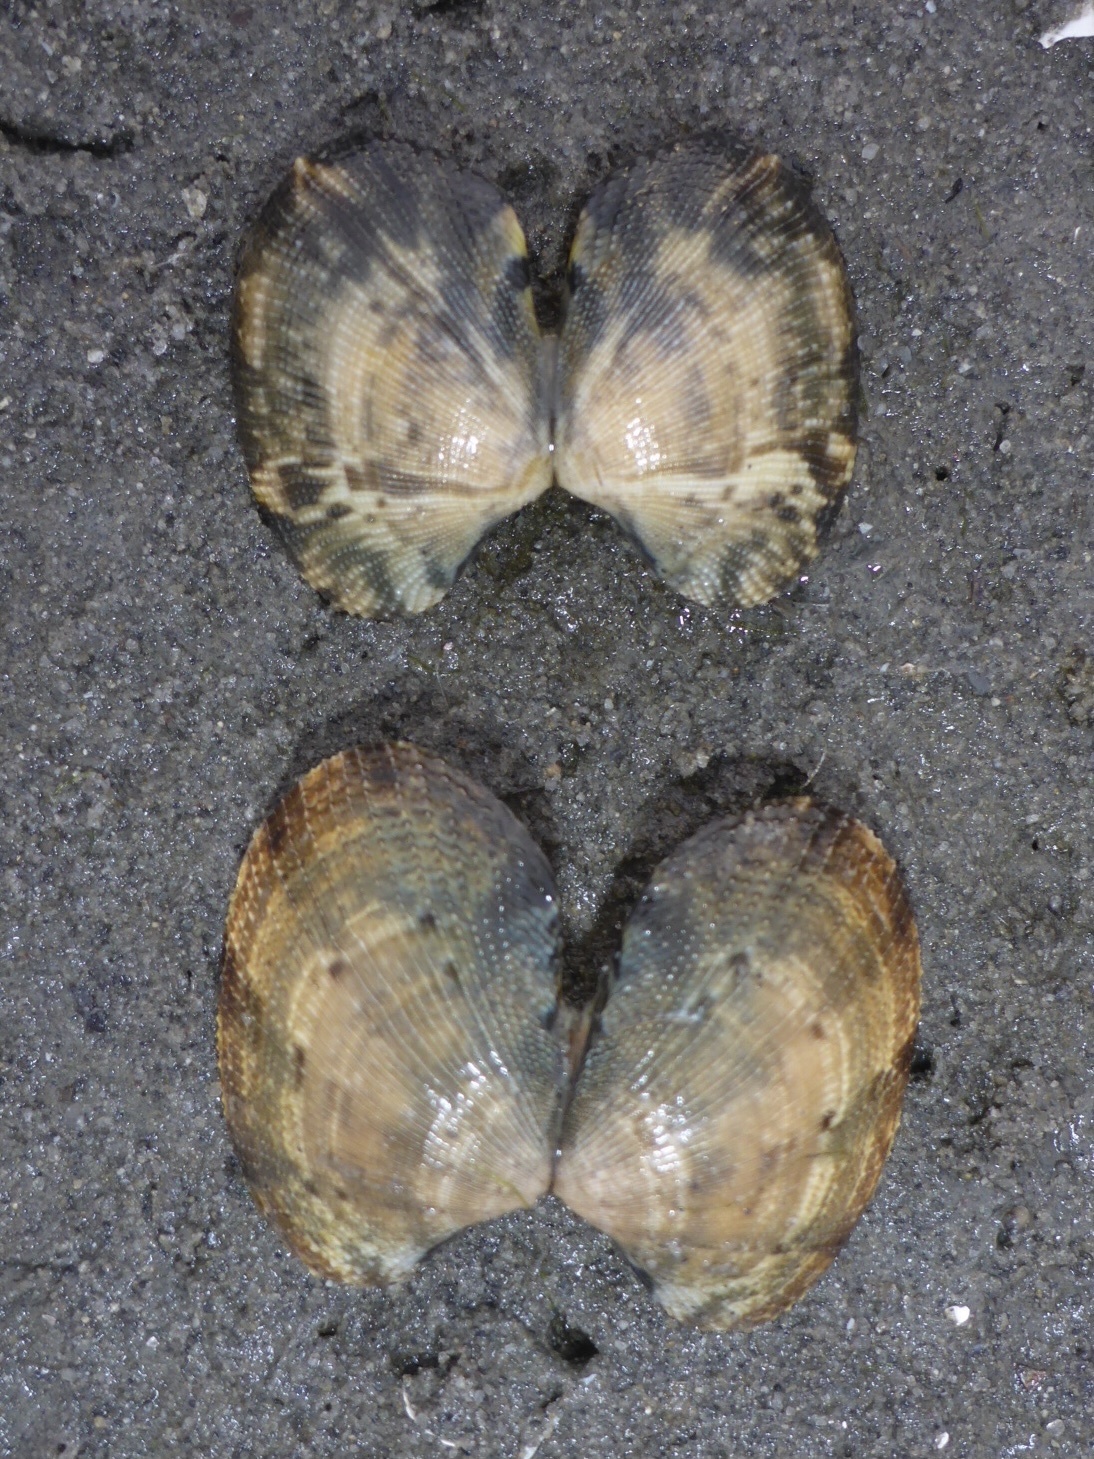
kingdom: Animalia
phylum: Mollusca
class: Bivalvia
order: Venerida
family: Veneridae
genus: Ruditapes
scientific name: Ruditapes philippinarum
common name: Manila clam
